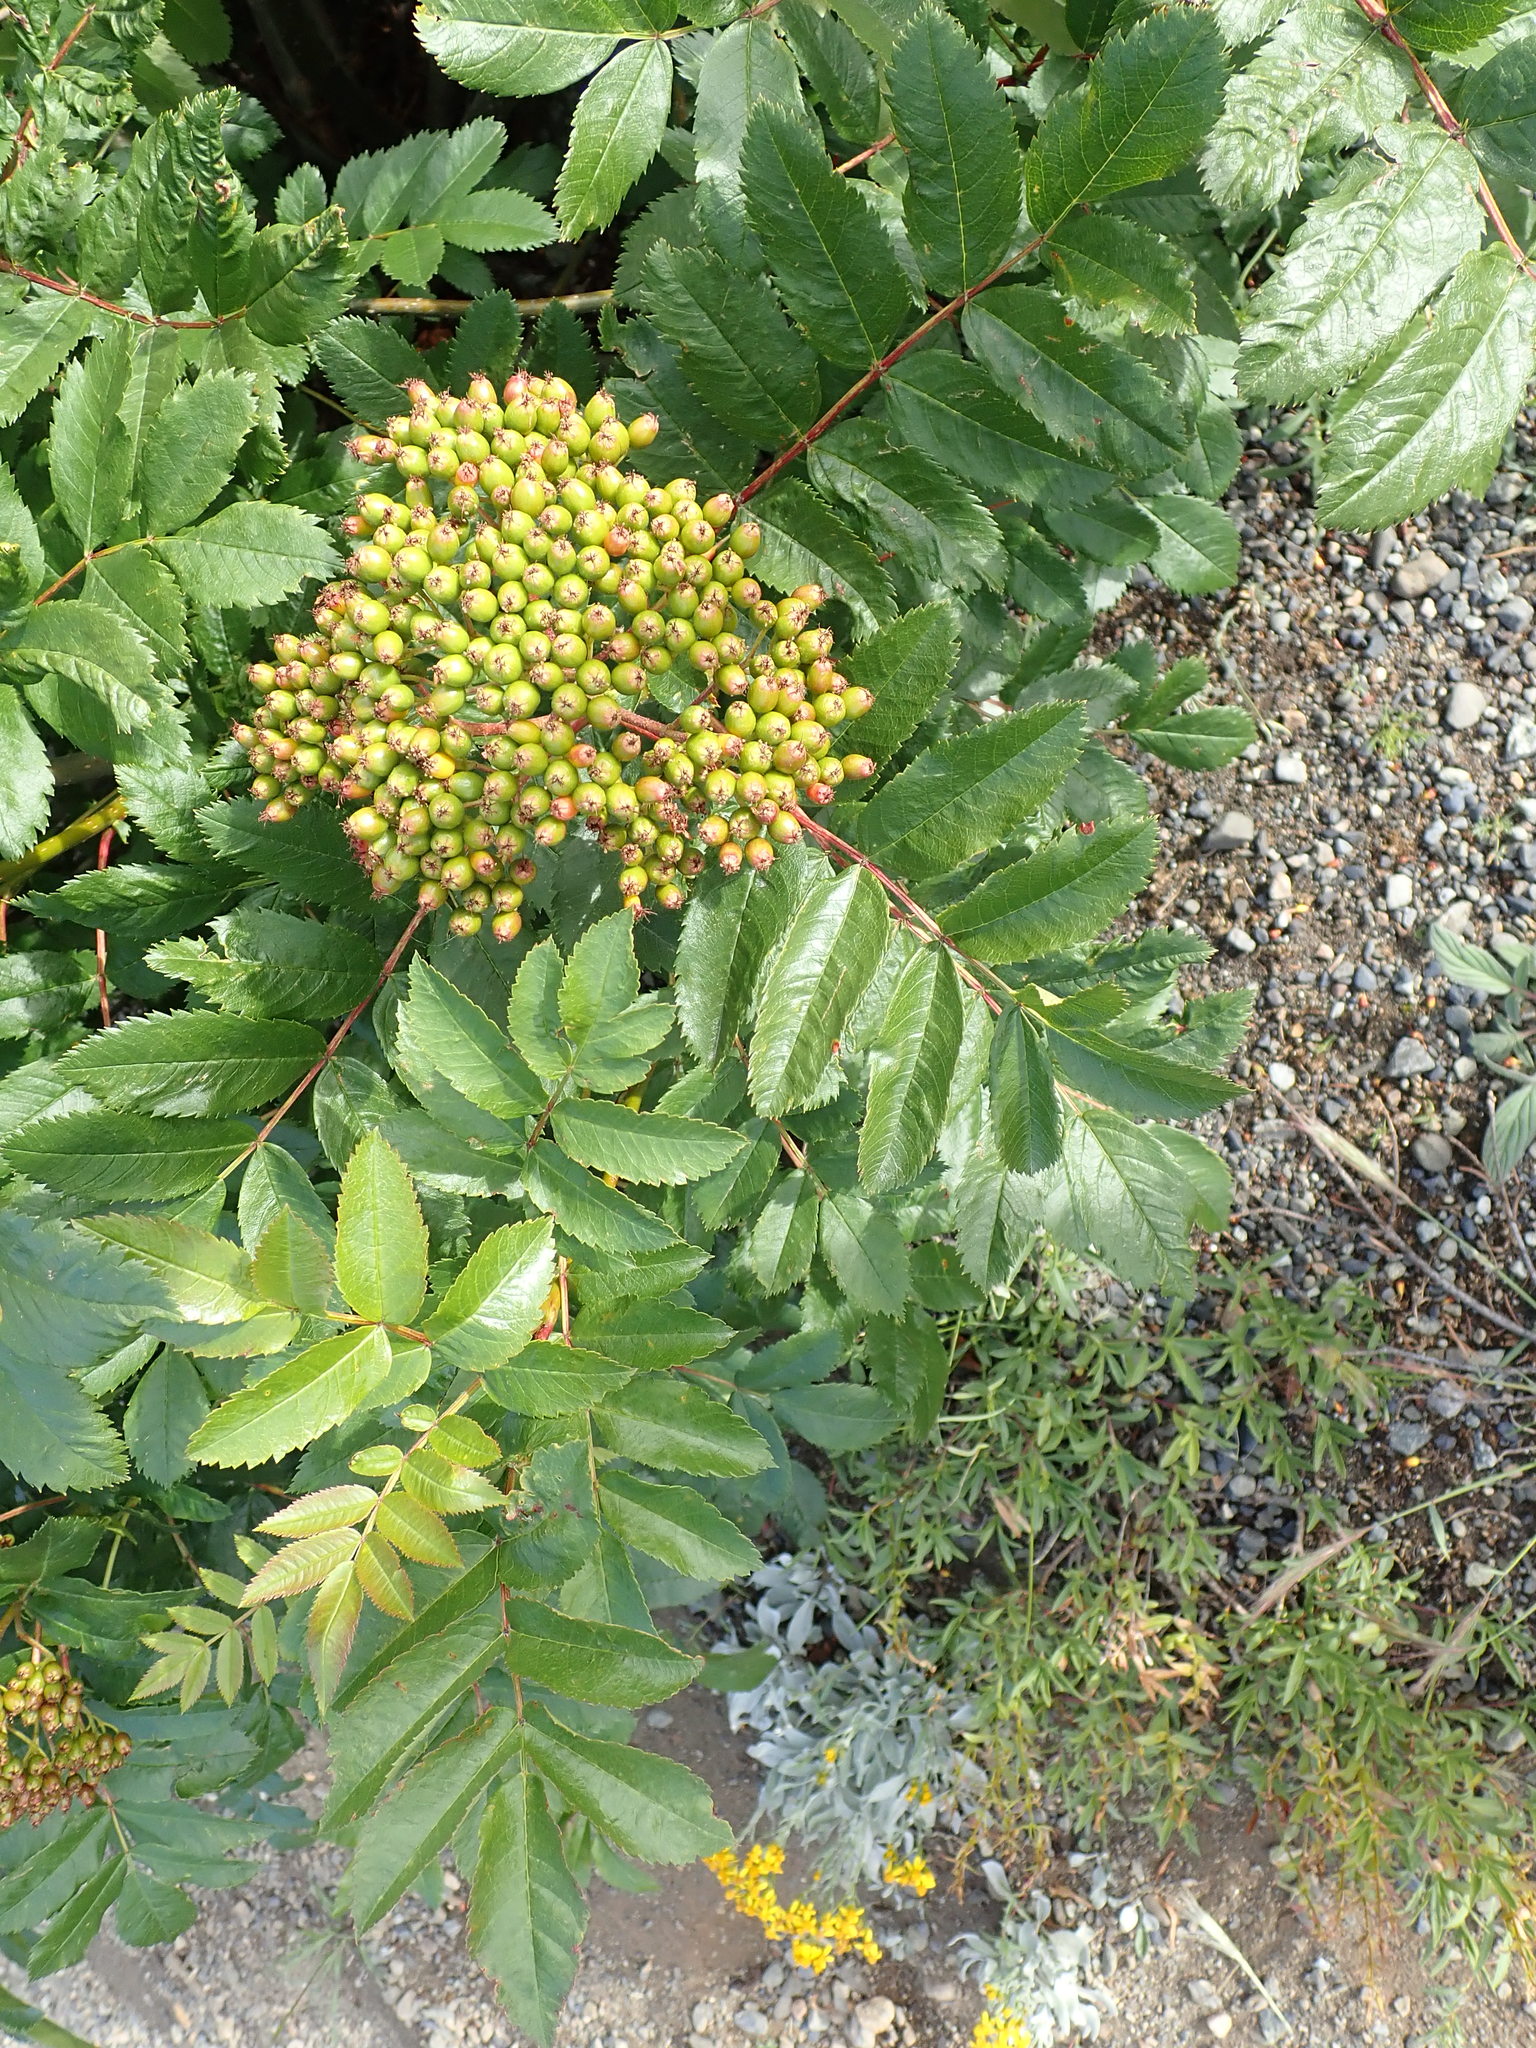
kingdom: Plantae
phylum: Tracheophyta
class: Magnoliopsida
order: Rosales
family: Rosaceae
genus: Sorbus
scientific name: Sorbus scopulina
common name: Greene's mountain-ash
